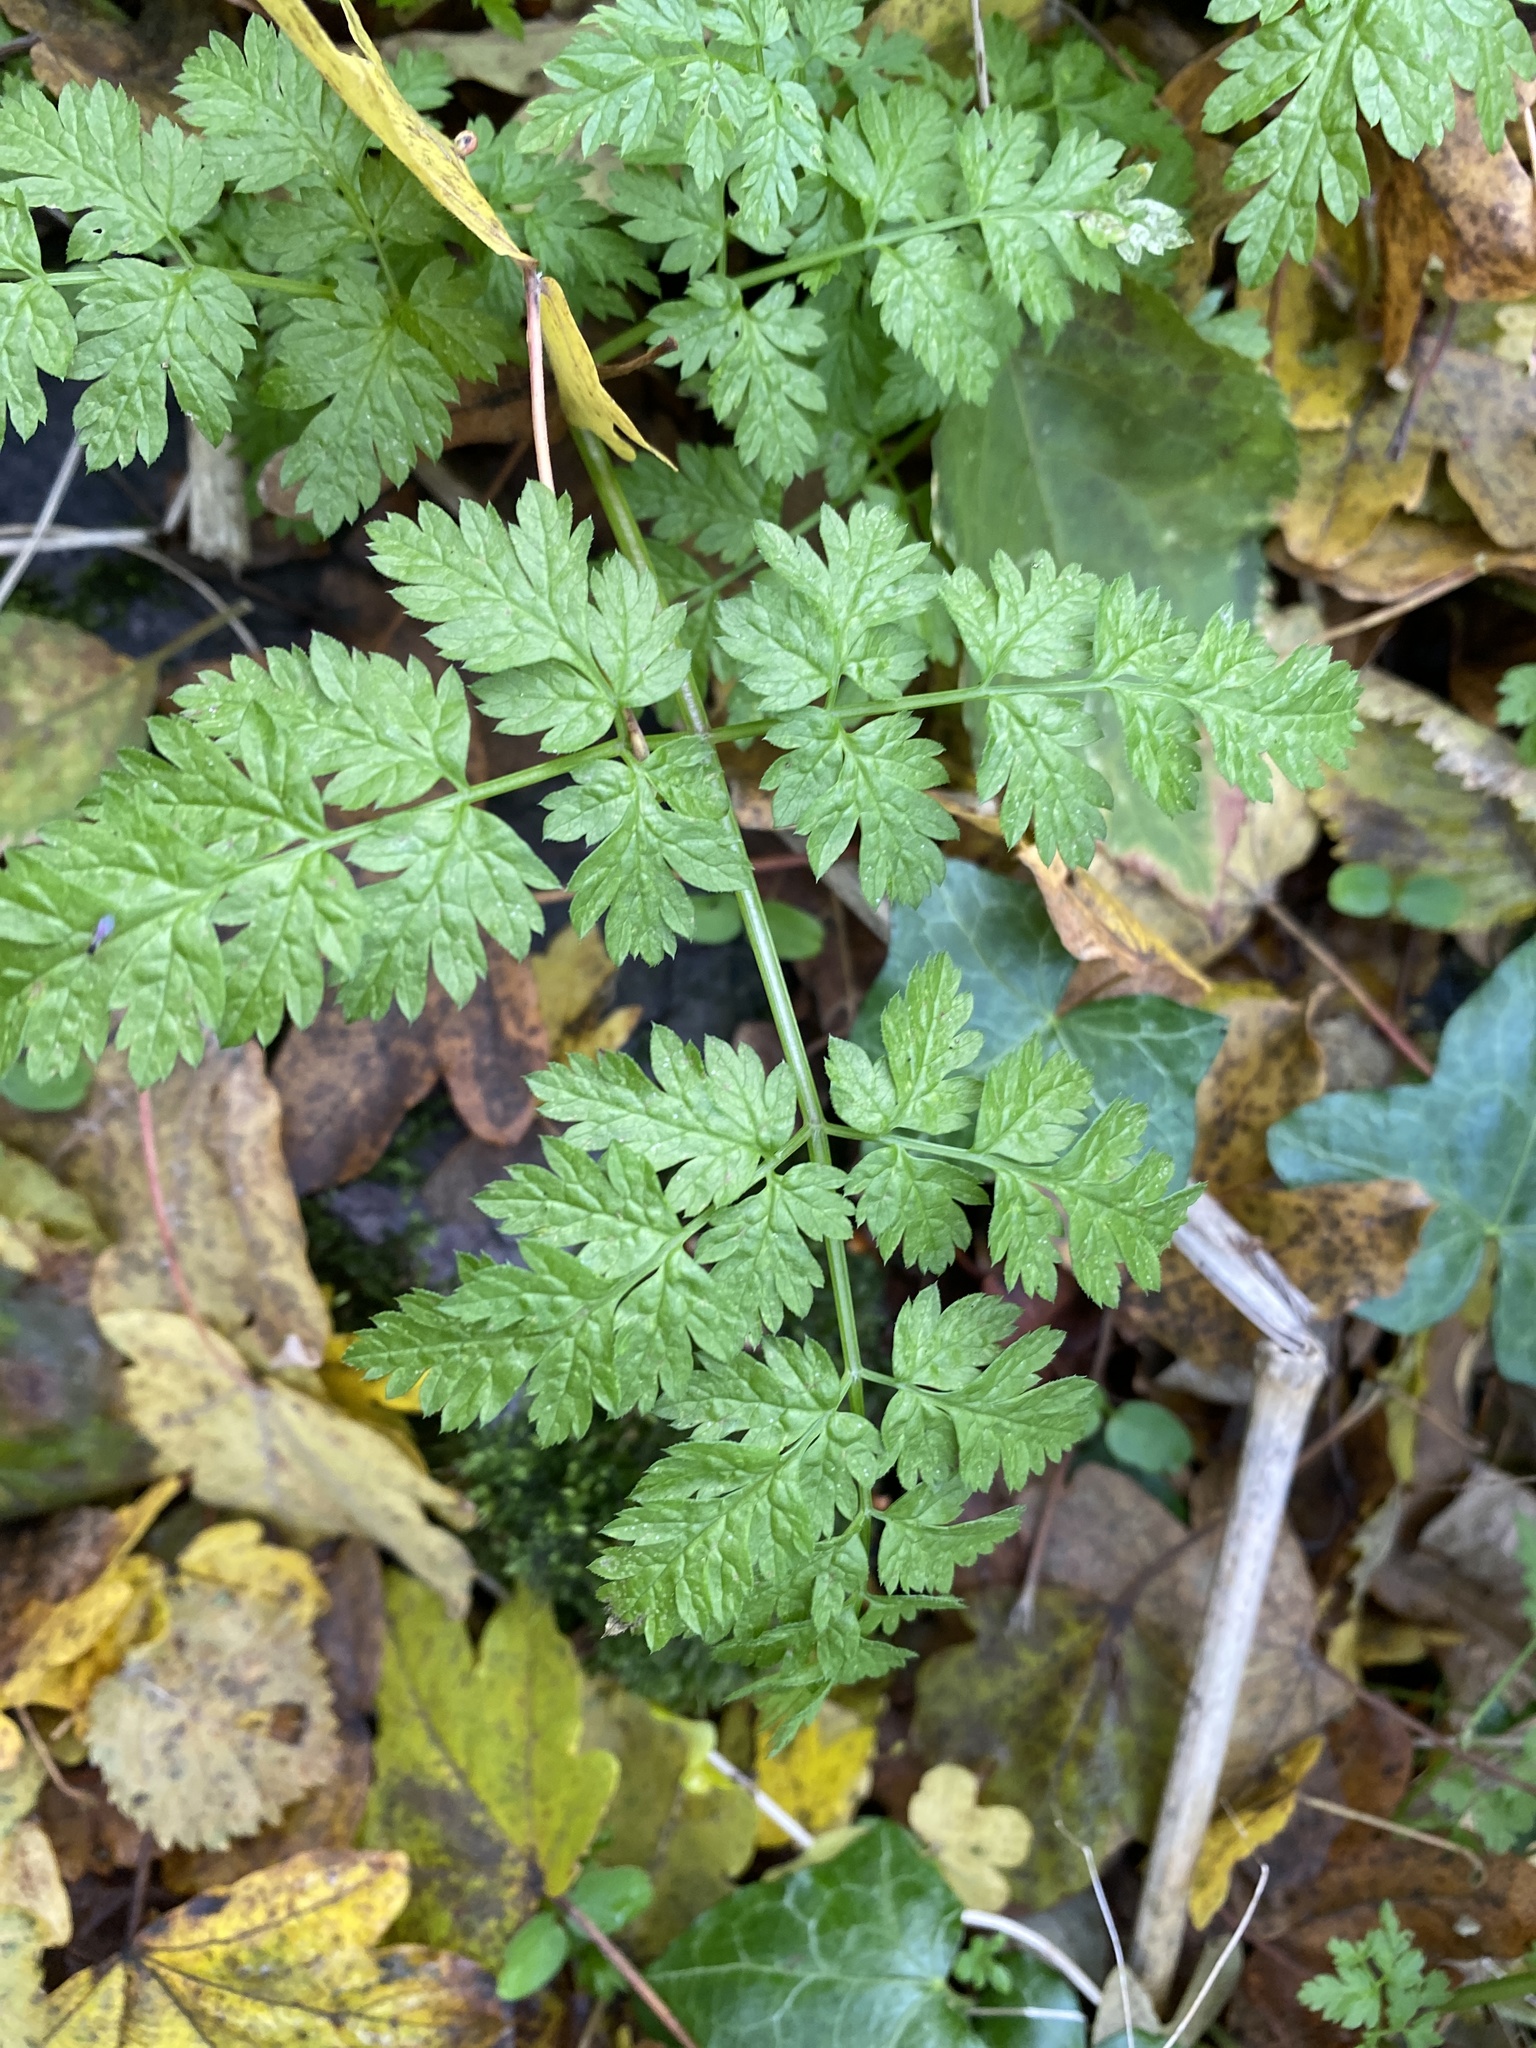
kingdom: Plantae
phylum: Tracheophyta
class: Magnoliopsida
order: Apiales
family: Apiaceae
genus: Anthriscus
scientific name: Anthriscus sylvestris
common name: Cow parsley
